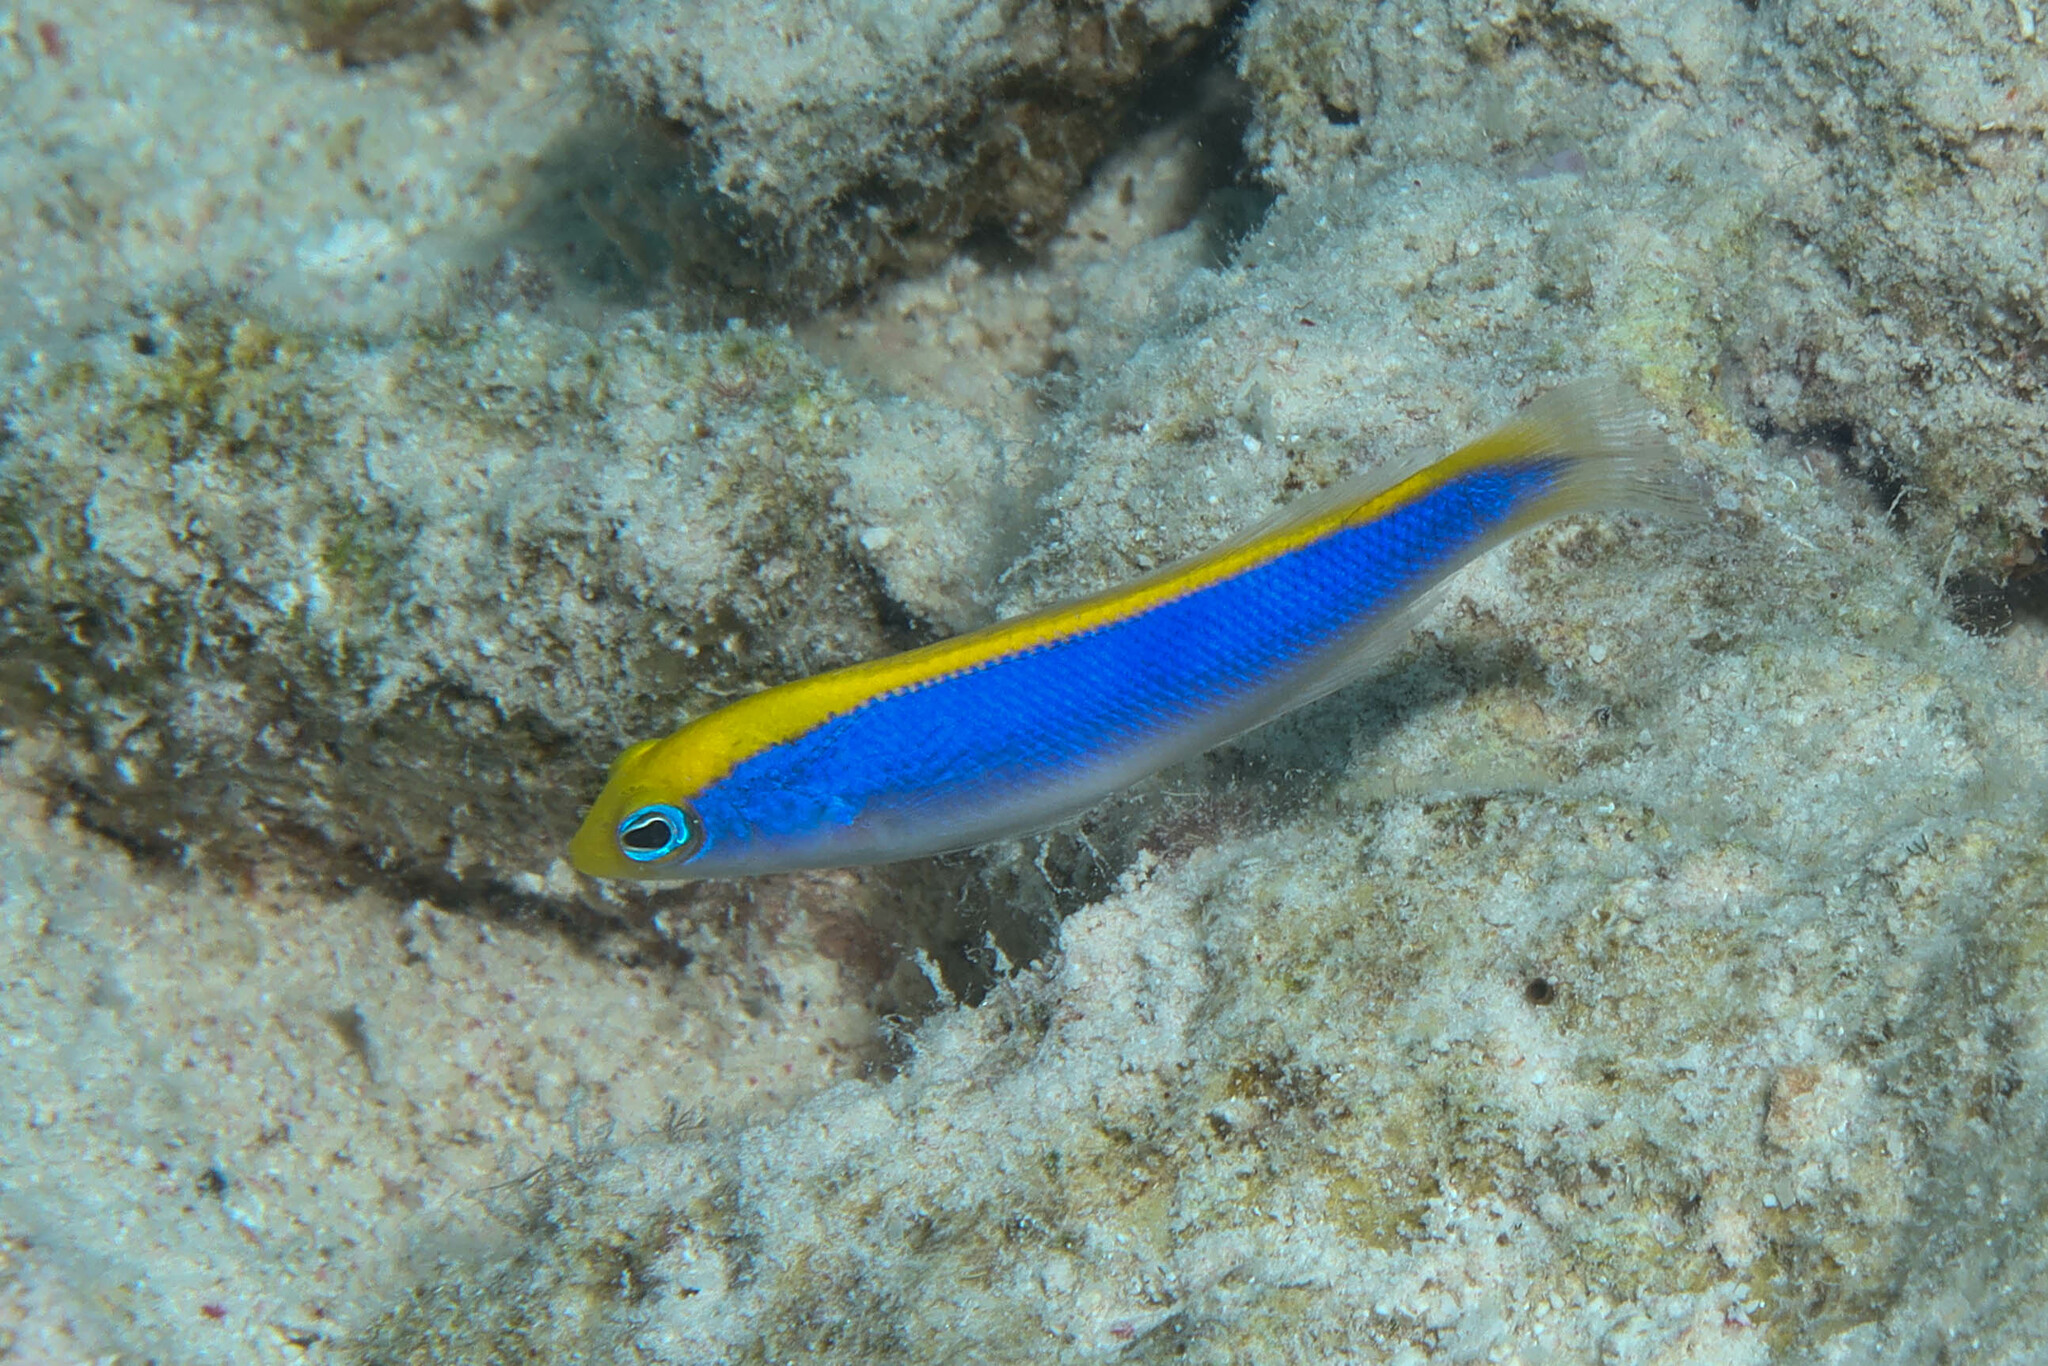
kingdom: Animalia
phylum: Chordata
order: Perciformes
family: Pseudochromidae
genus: Pseudochromis
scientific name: Pseudochromis flavivertex
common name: Sunrise dottyback
